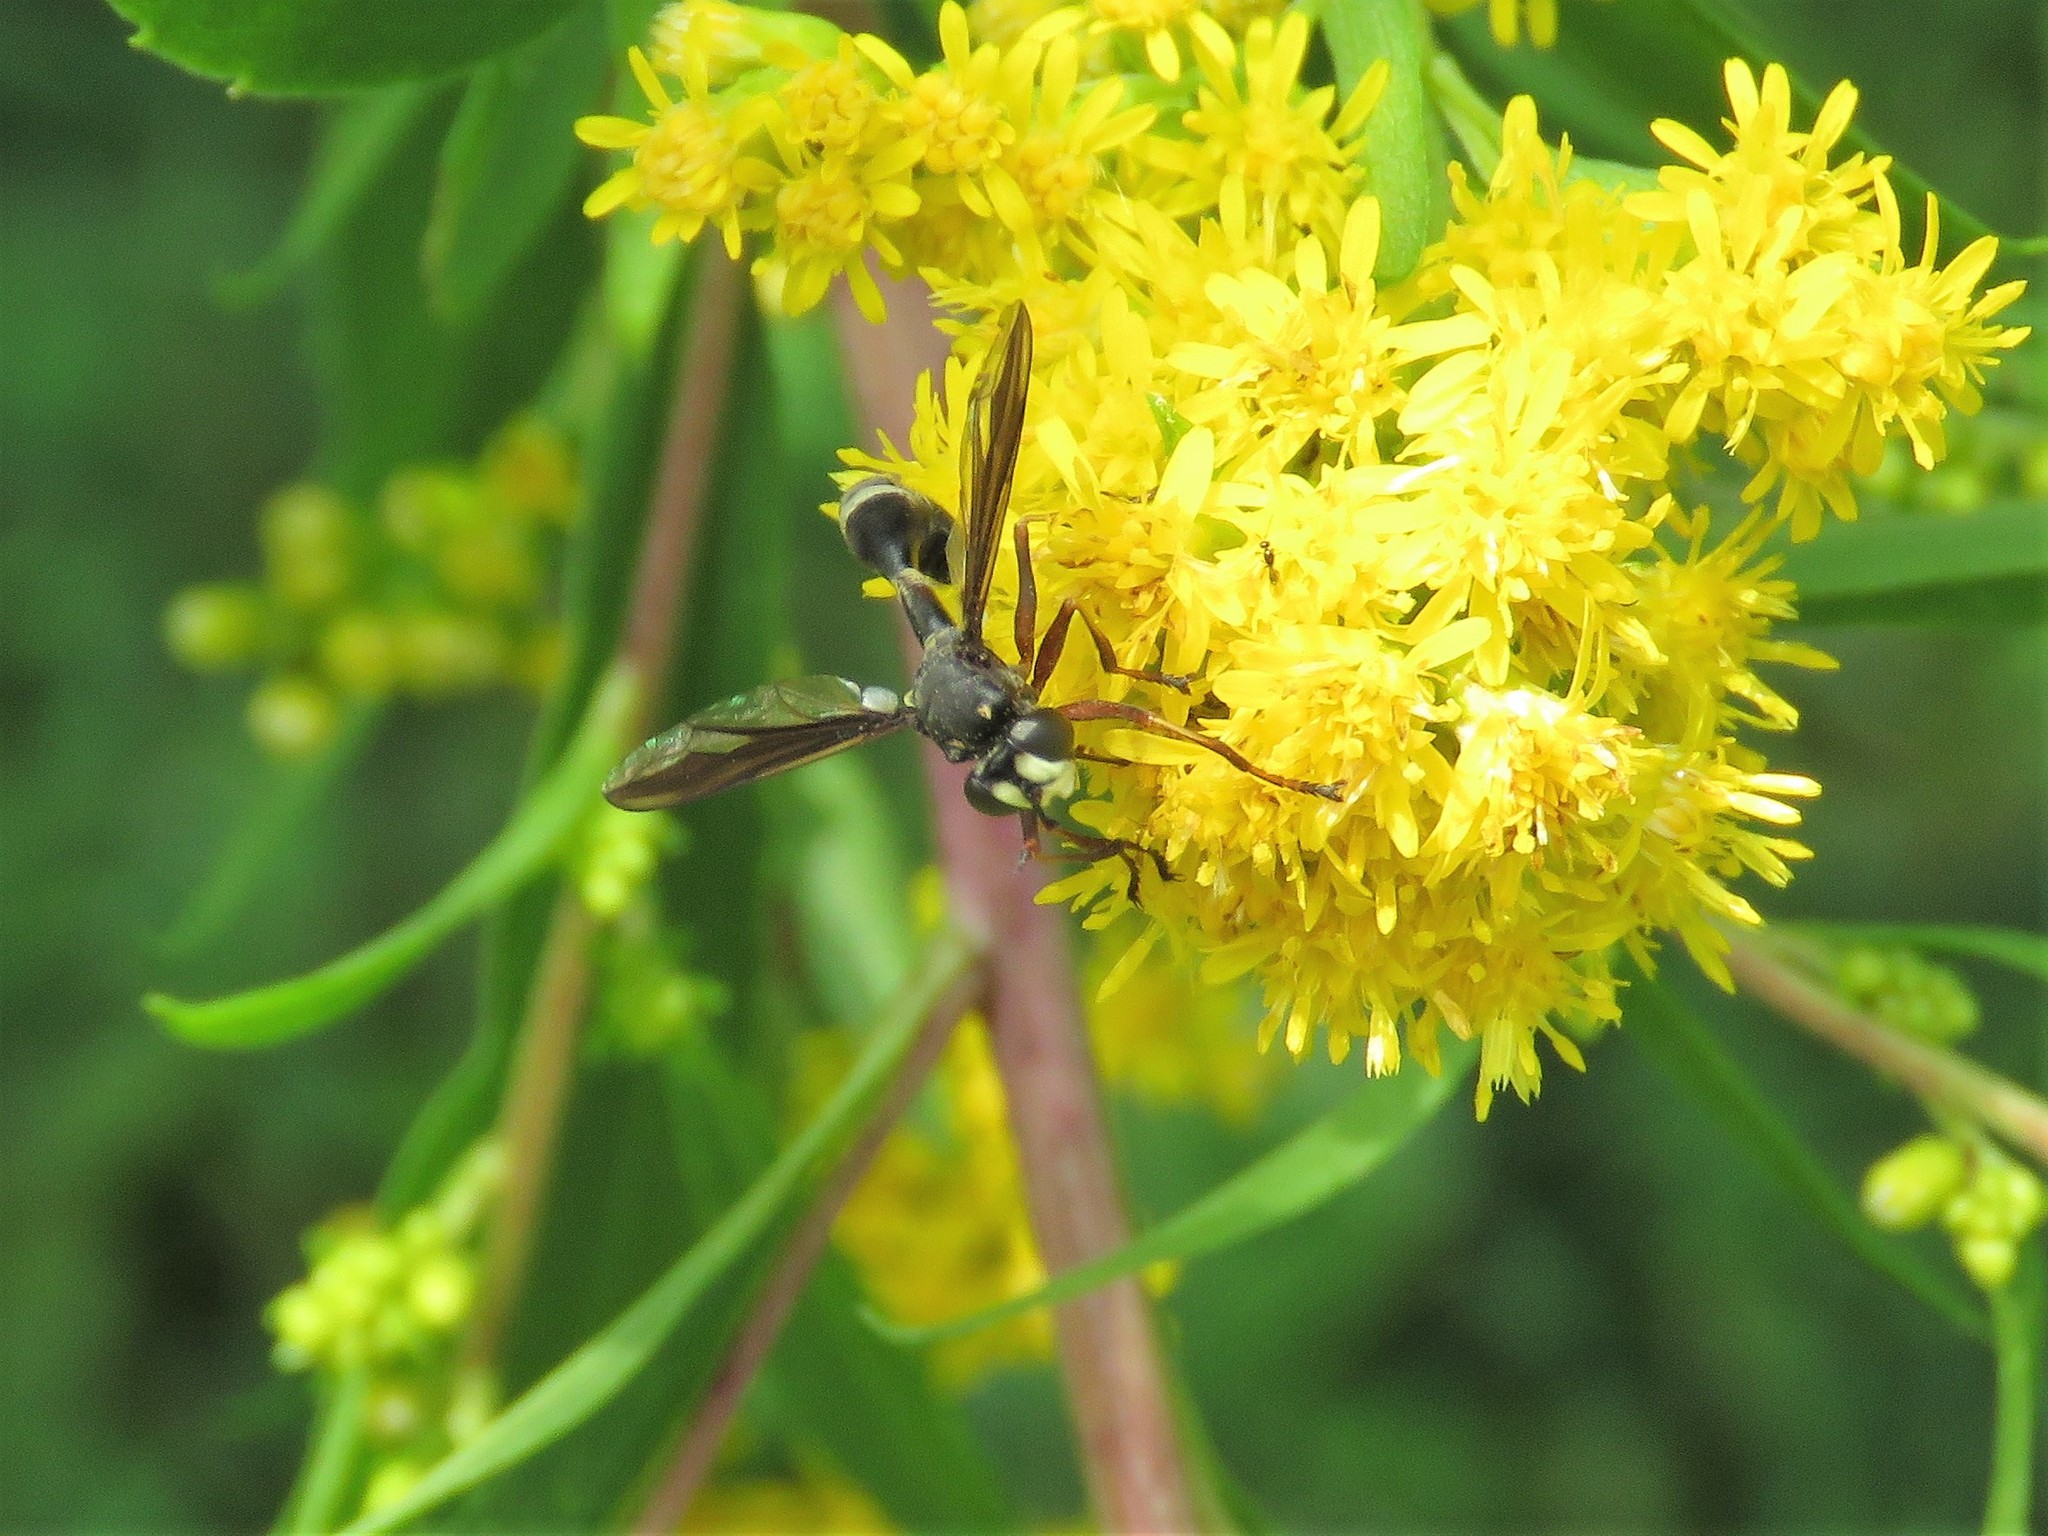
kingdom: Animalia
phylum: Arthropoda
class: Insecta
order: Diptera
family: Conopidae
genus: Physocephala
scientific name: Physocephala furcillata
